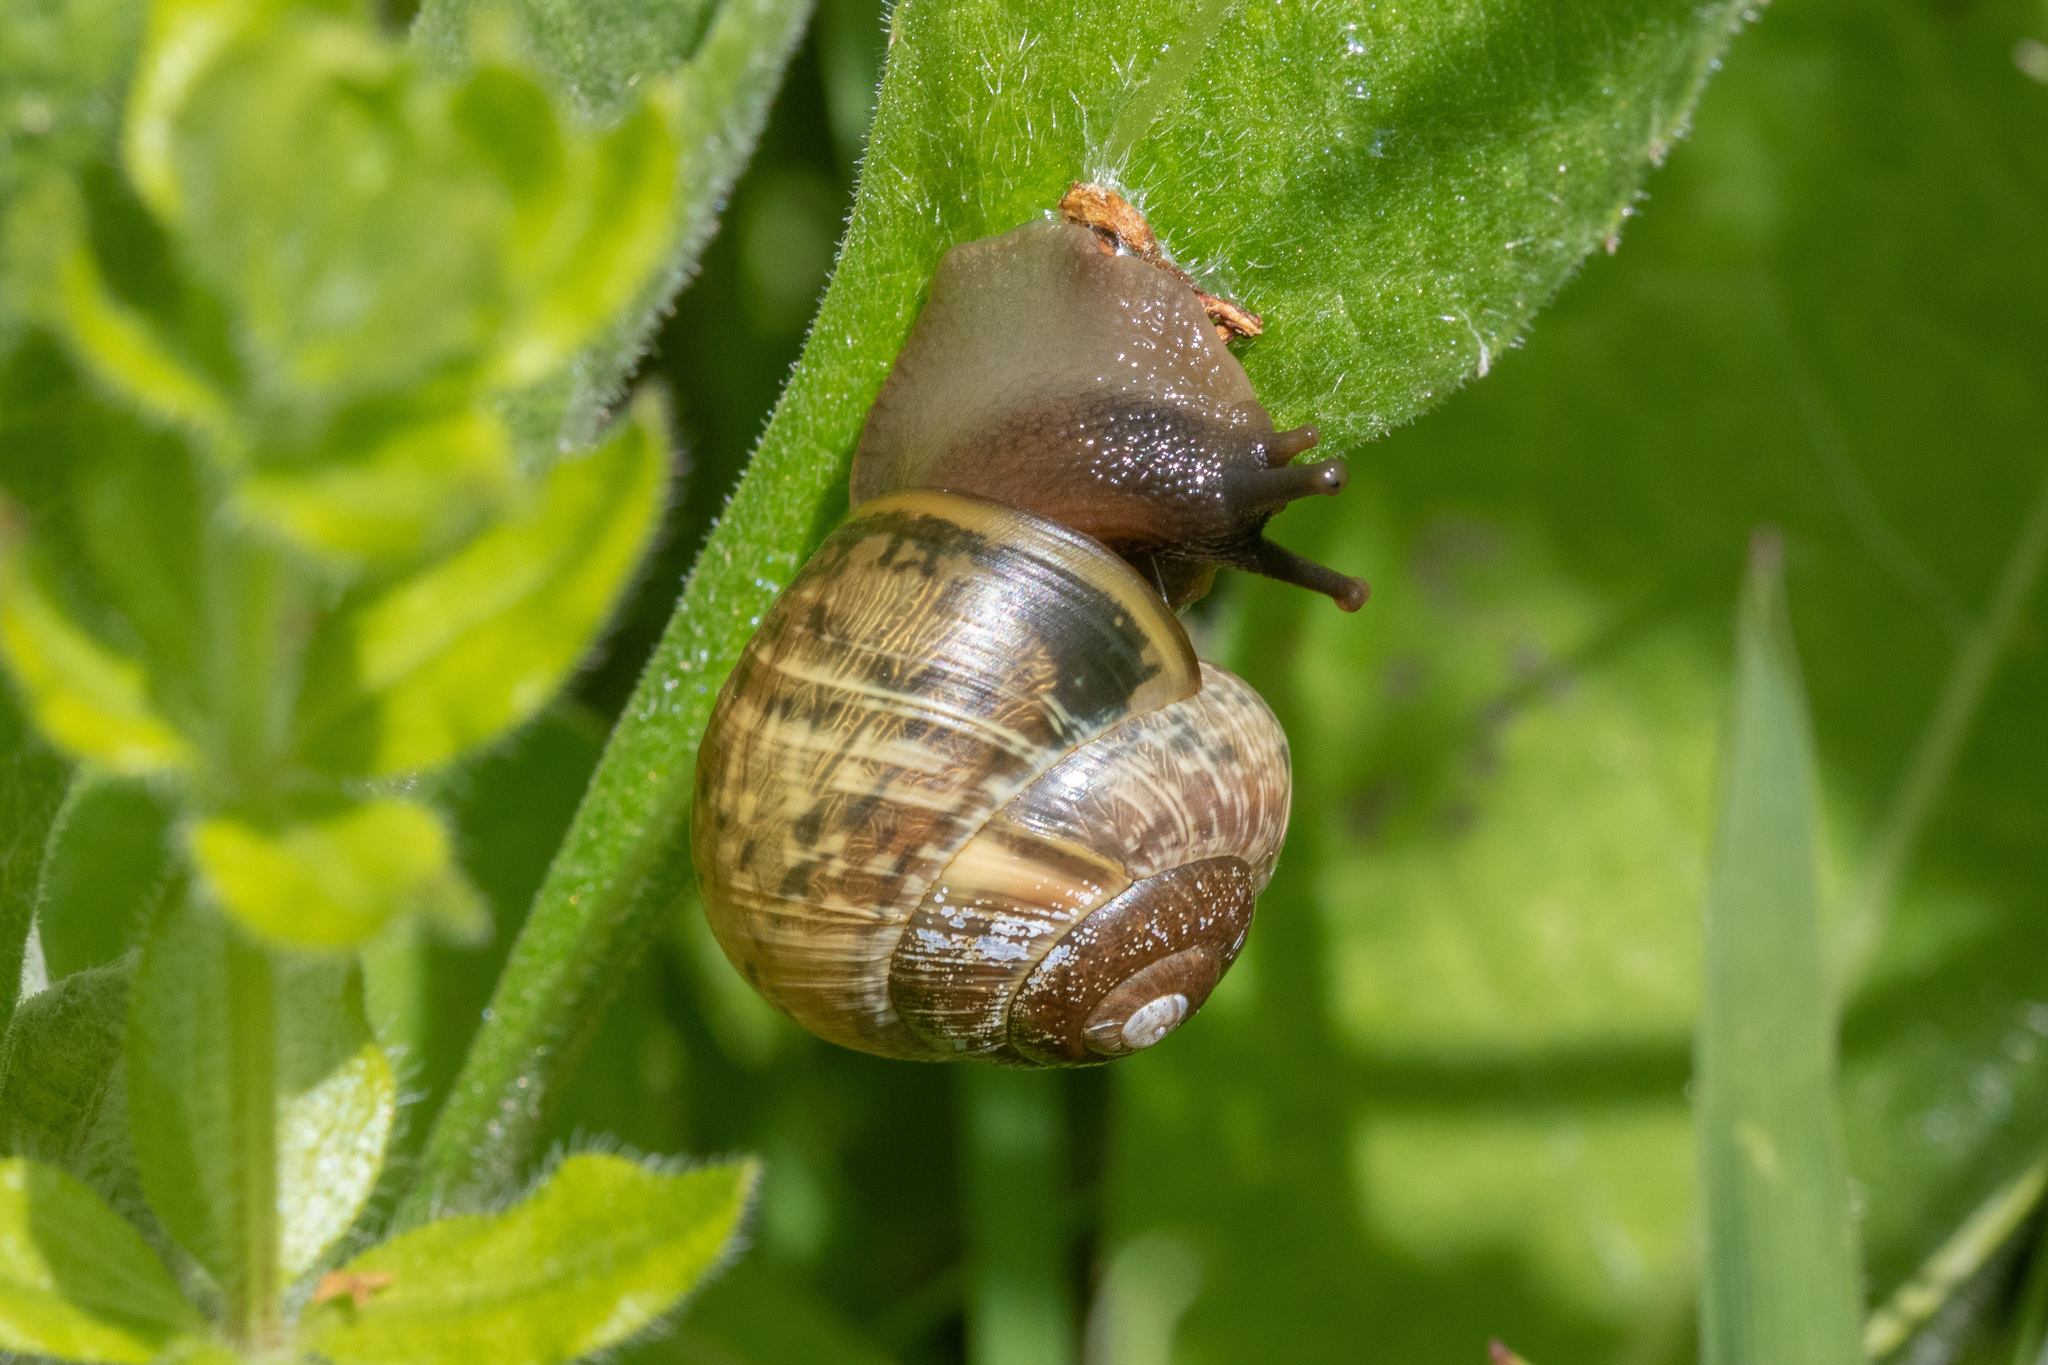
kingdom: Animalia
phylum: Mollusca
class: Gastropoda
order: Stylommatophora
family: Helicidae
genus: Arianta
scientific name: Arianta arbustorum
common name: Copse snail
